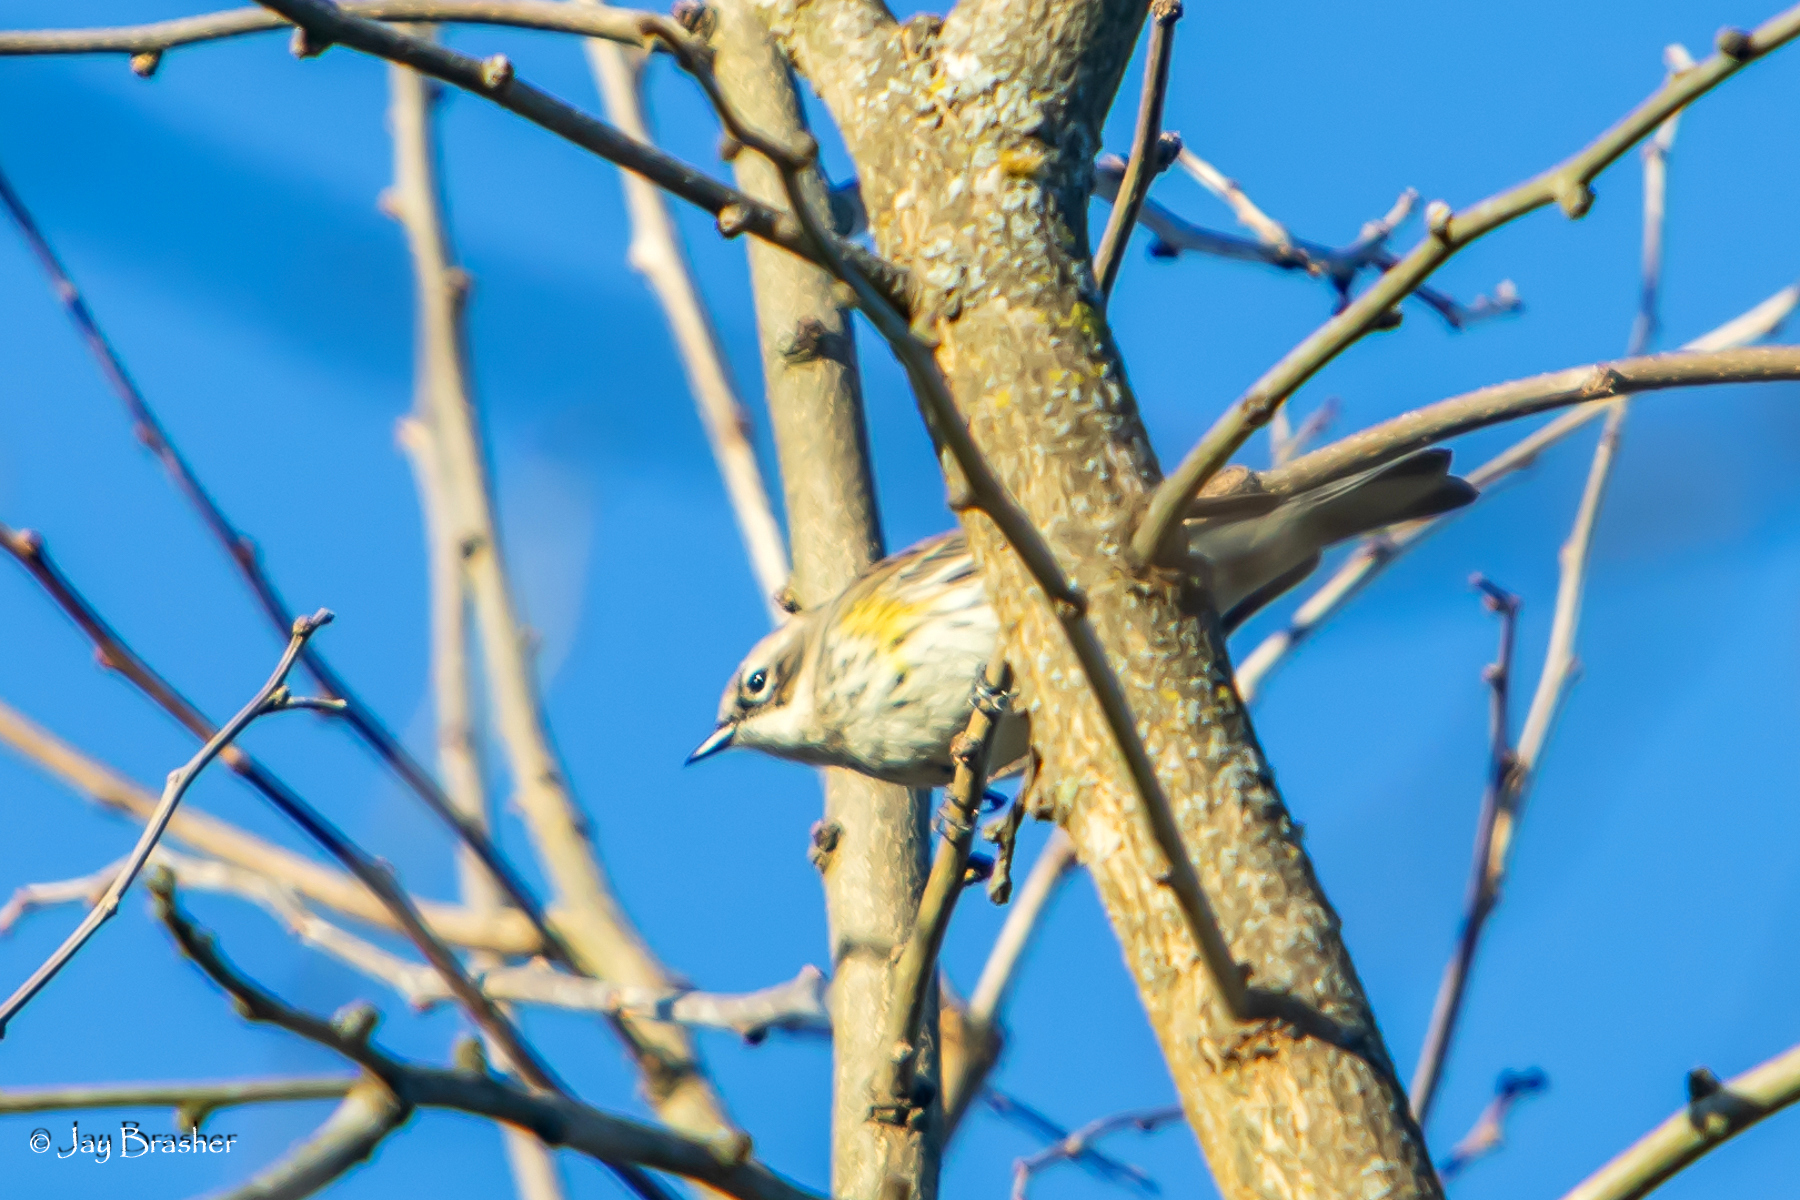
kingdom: Animalia
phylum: Chordata
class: Aves
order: Passeriformes
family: Parulidae
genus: Setophaga
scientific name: Setophaga coronata
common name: Myrtle warbler
